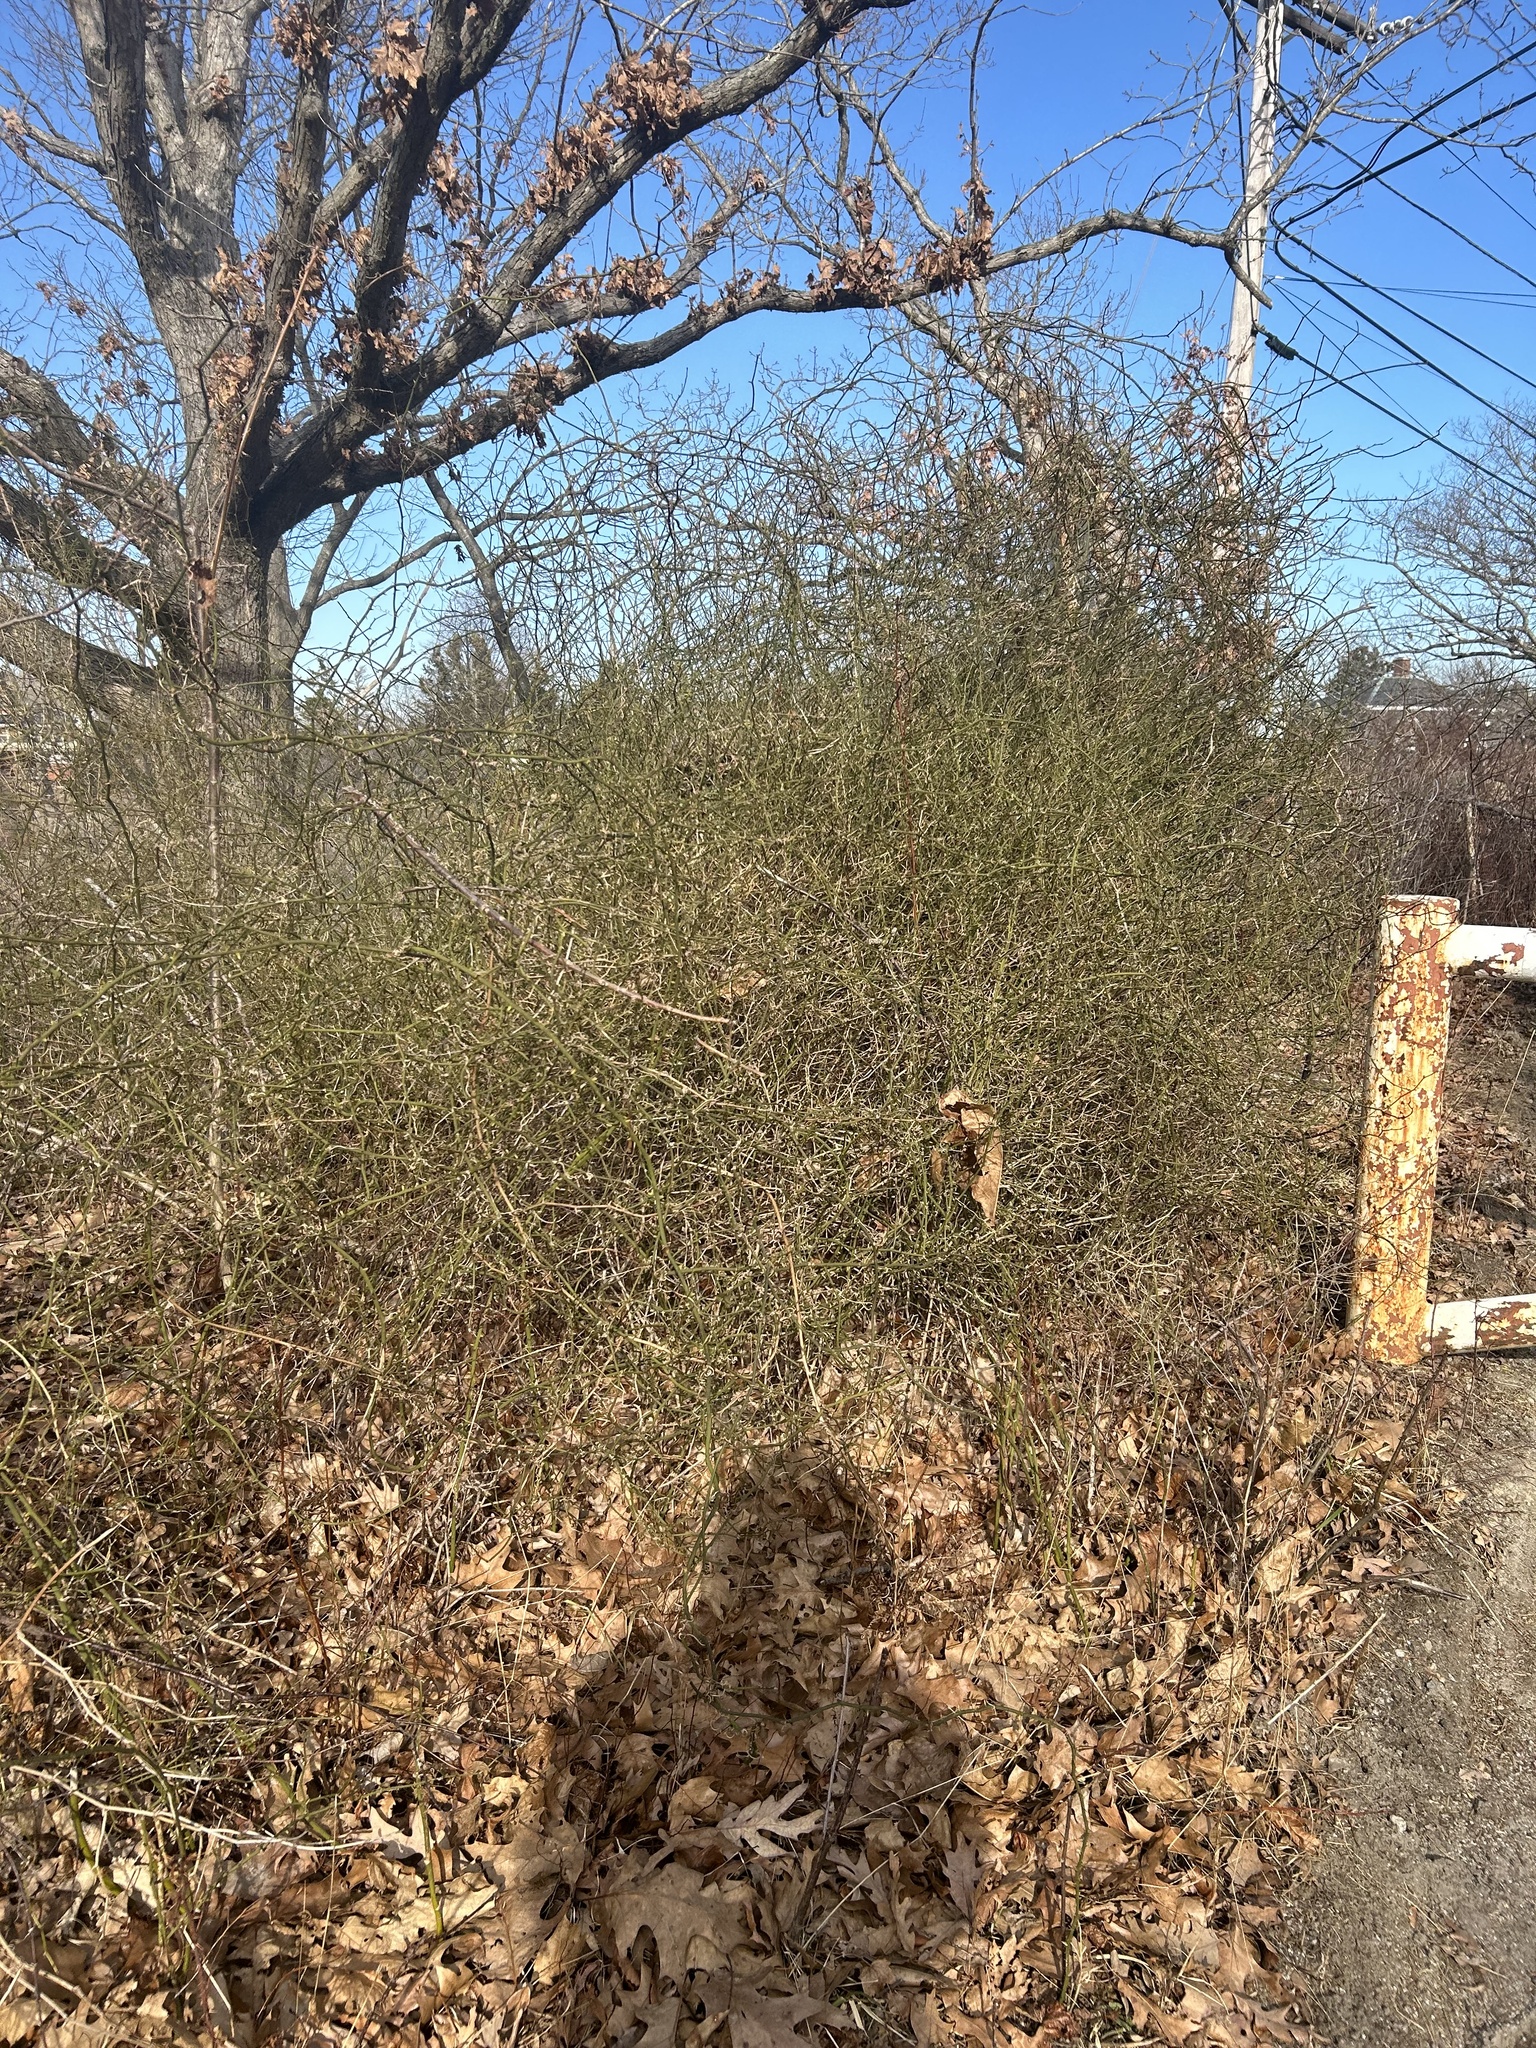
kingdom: Plantae
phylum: Tracheophyta
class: Liliopsida
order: Liliales
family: Smilacaceae
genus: Smilax
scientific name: Smilax rotundifolia
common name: Bullbriar
